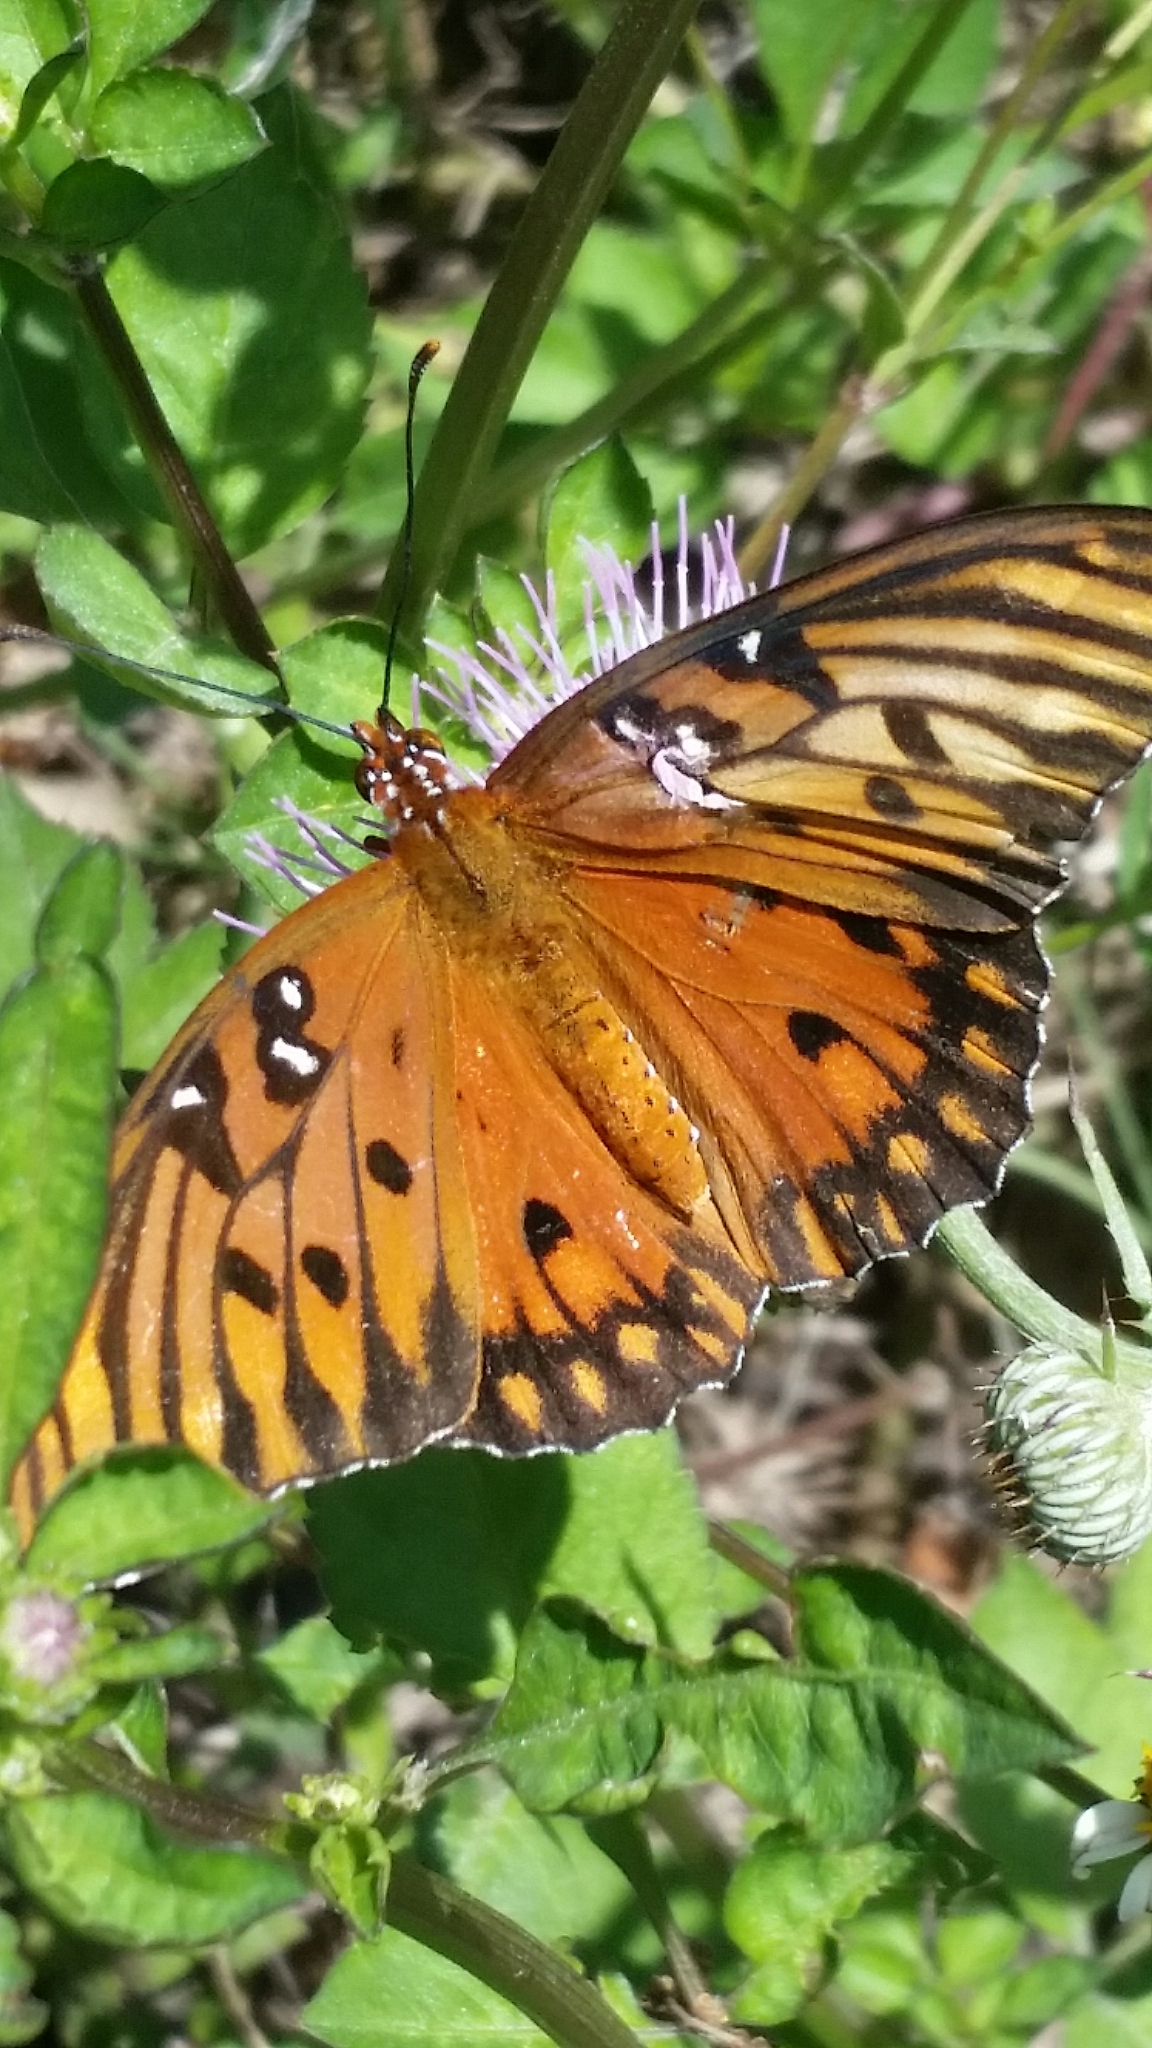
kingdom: Animalia
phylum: Arthropoda
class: Insecta
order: Lepidoptera
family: Nymphalidae
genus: Dione
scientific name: Dione vanillae
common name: Gulf fritillary
